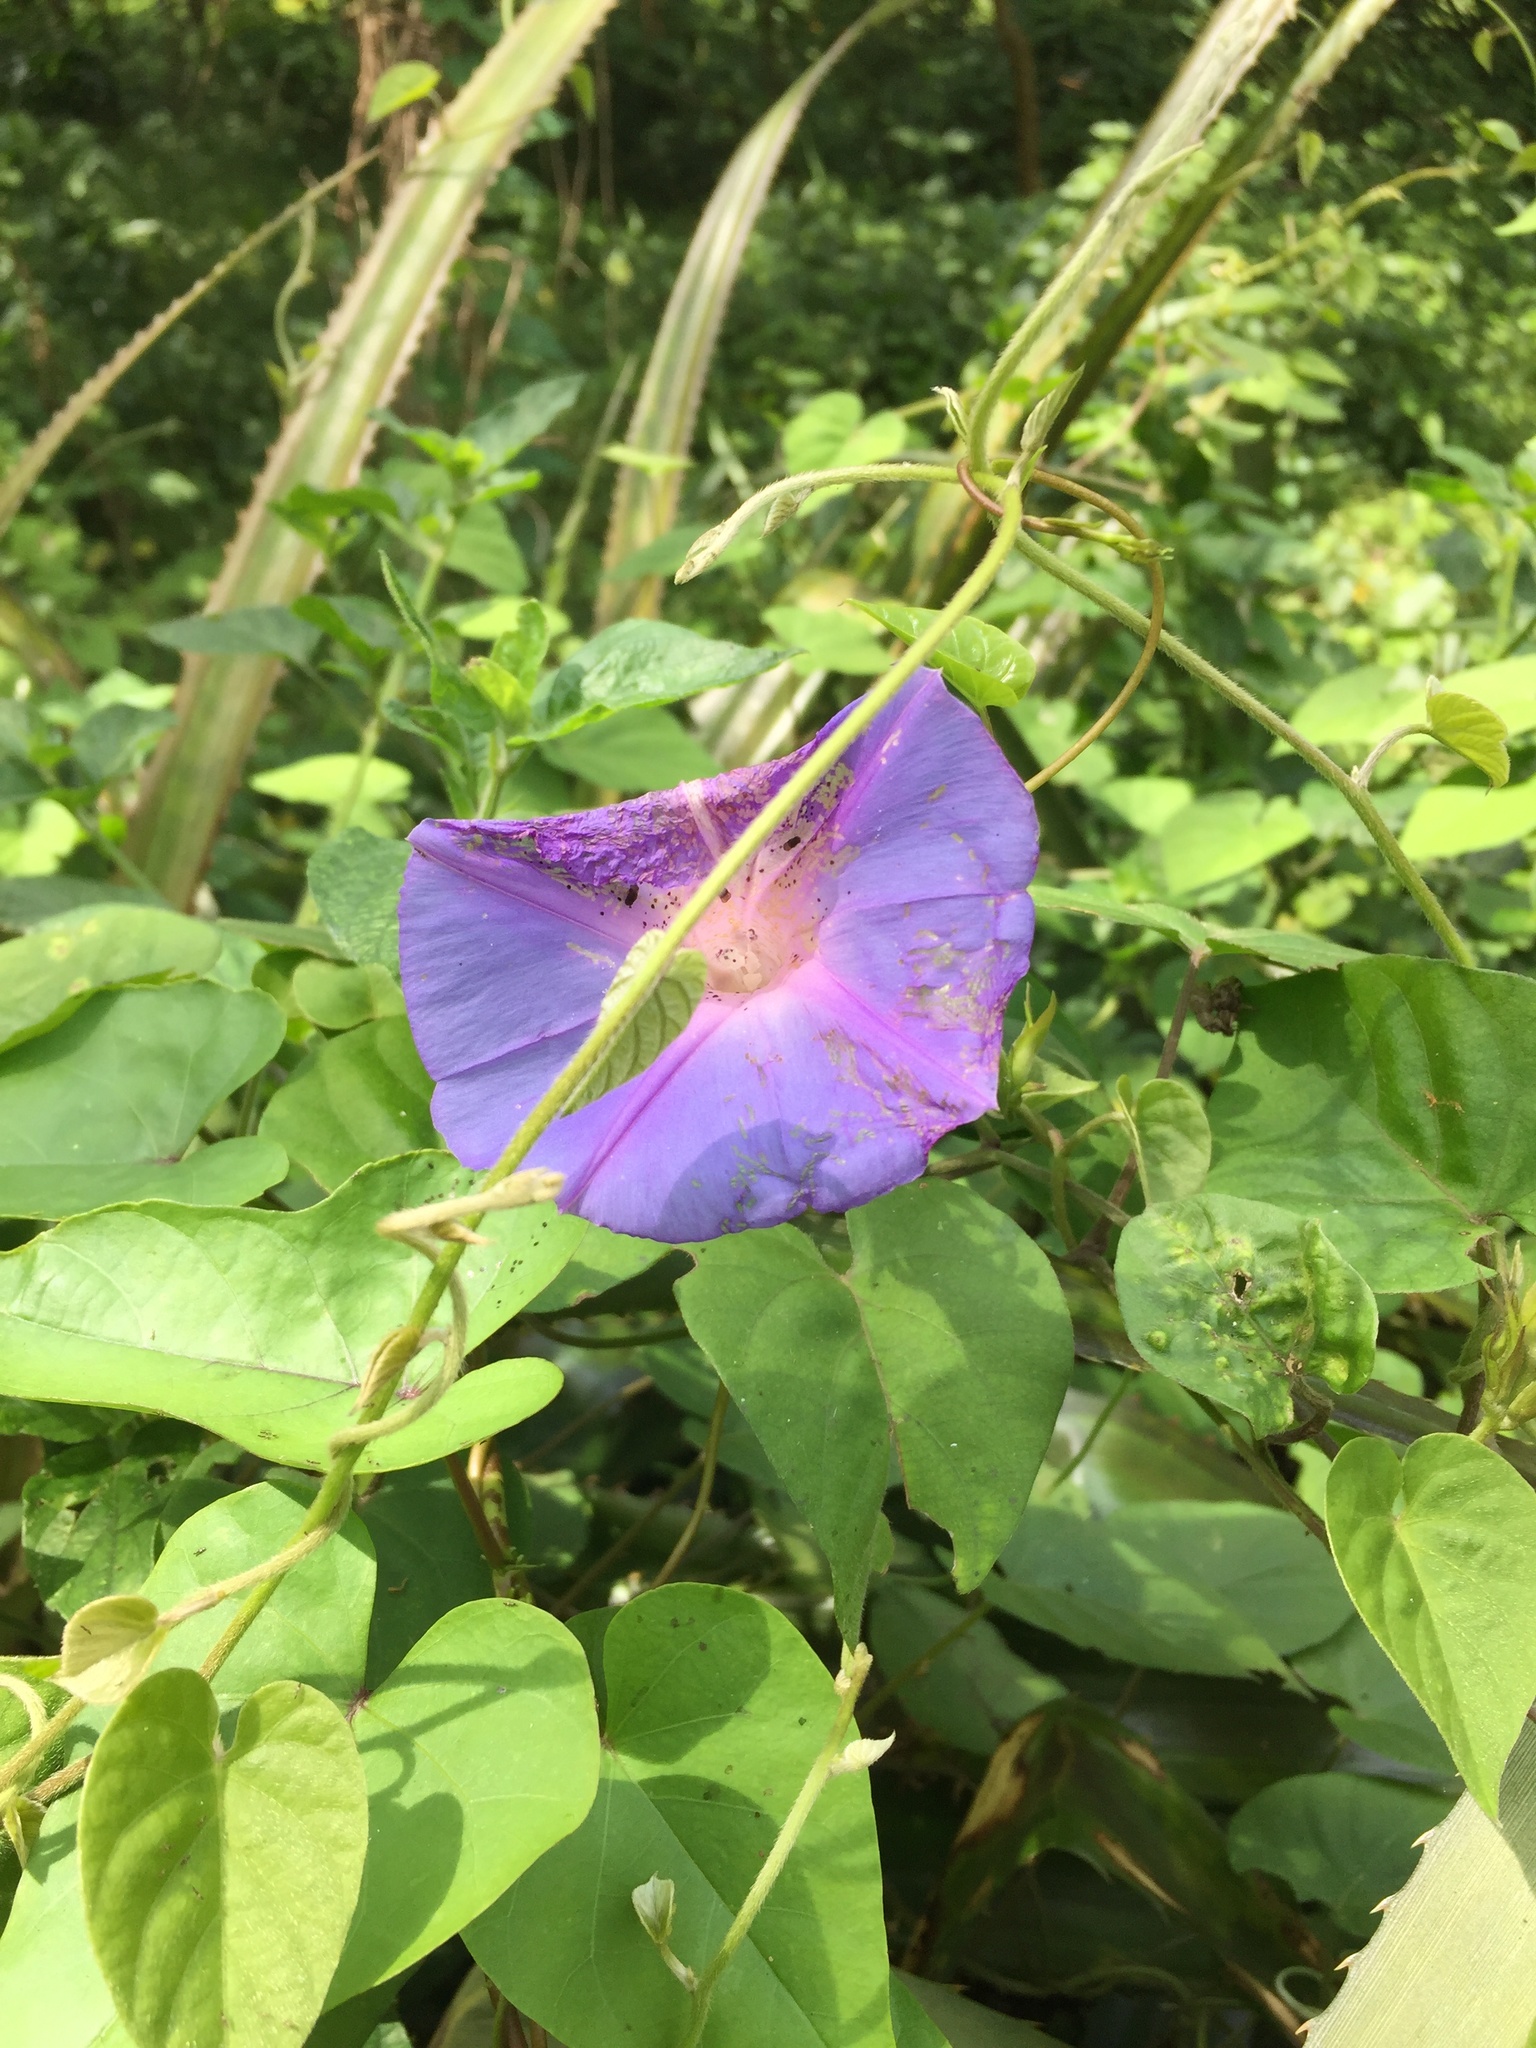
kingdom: Plantae
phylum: Tracheophyta
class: Magnoliopsida
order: Solanales
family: Convolvulaceae
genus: Ipomoea
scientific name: Ipomoea indica
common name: Blue dawnflower
